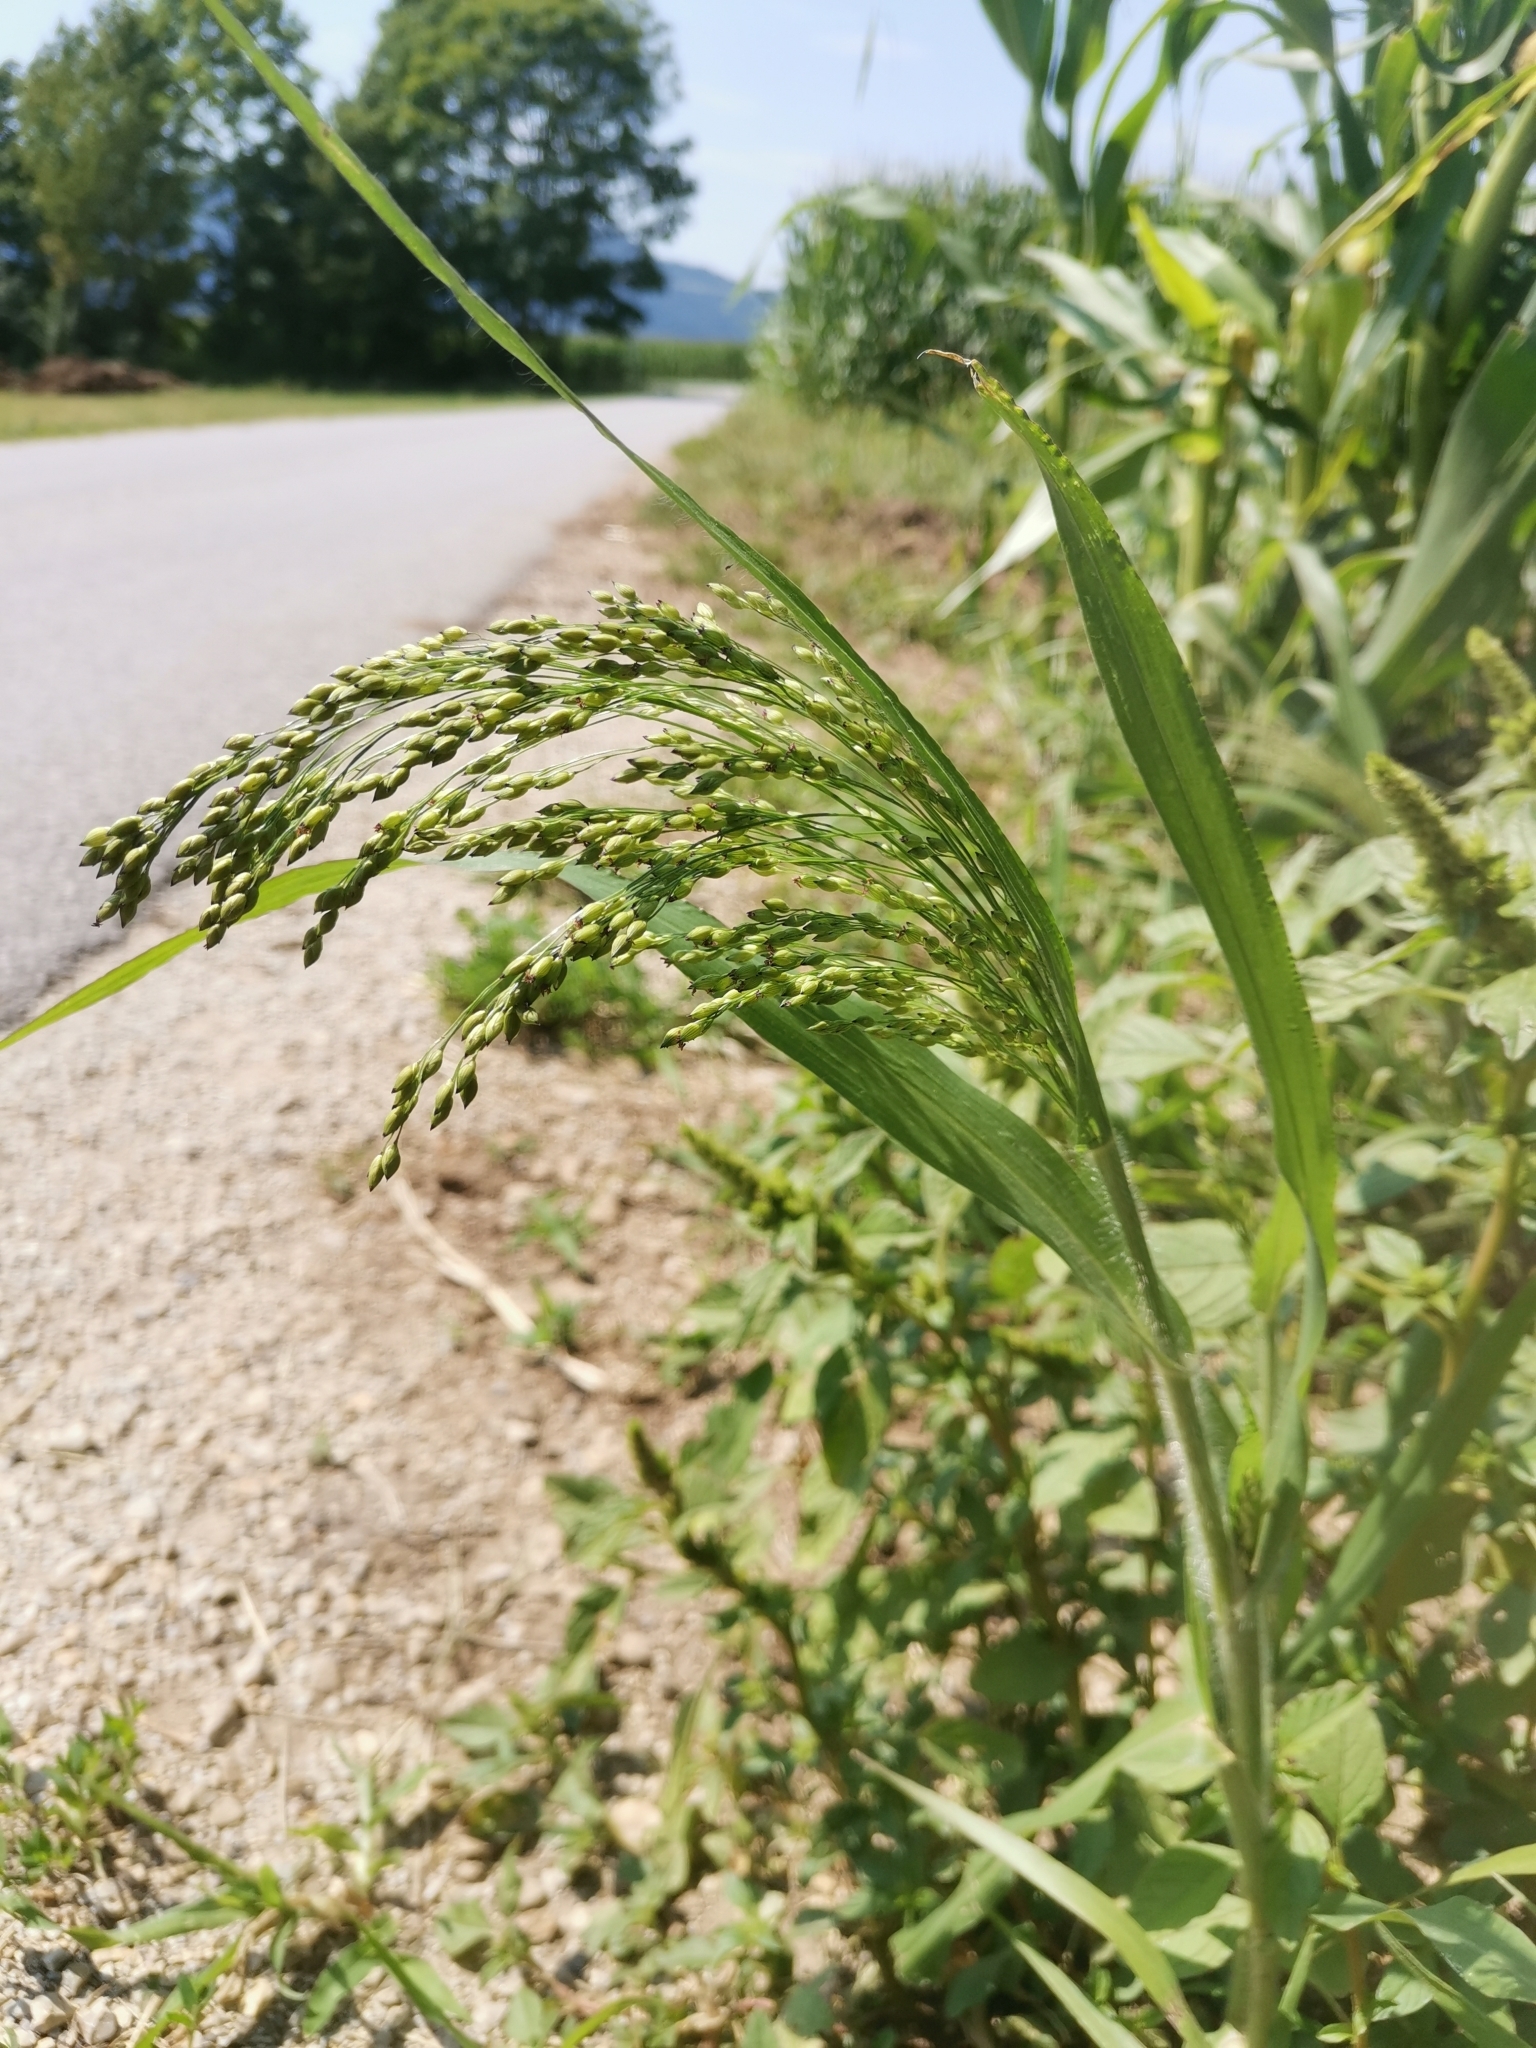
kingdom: Plantae
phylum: Tracheophyta
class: Liliopsida
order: Poales
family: Poaceae
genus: Panicum
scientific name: Panicum miliaceum
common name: Common millet
